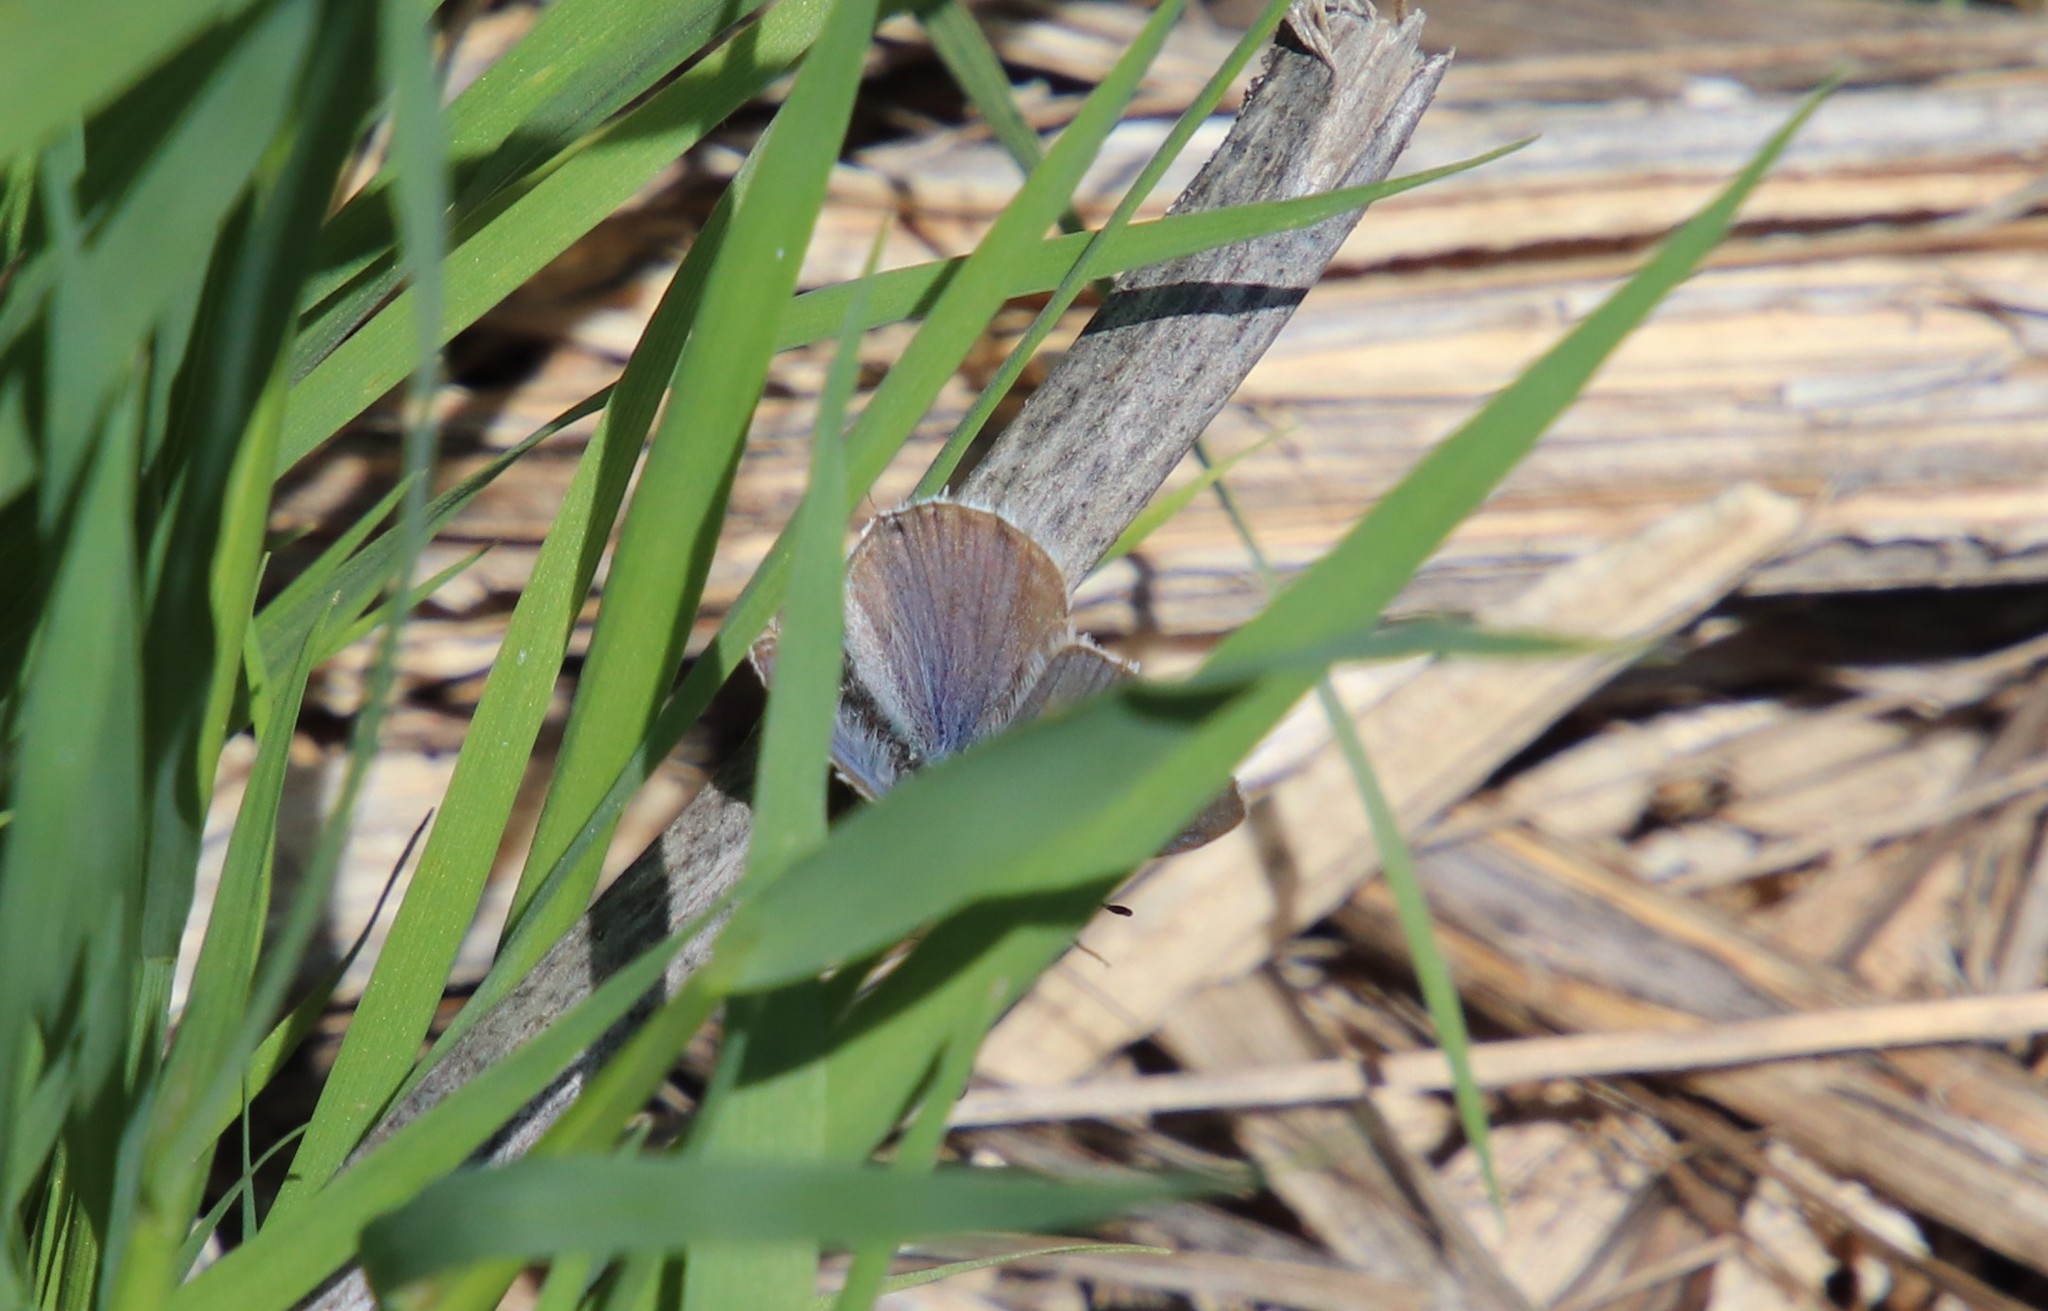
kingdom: Animalia
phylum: Arthropoda
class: Insecta
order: Lepidoptera
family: Lycaenidae
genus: Elkalyce
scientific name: Elkalyce amyntula
